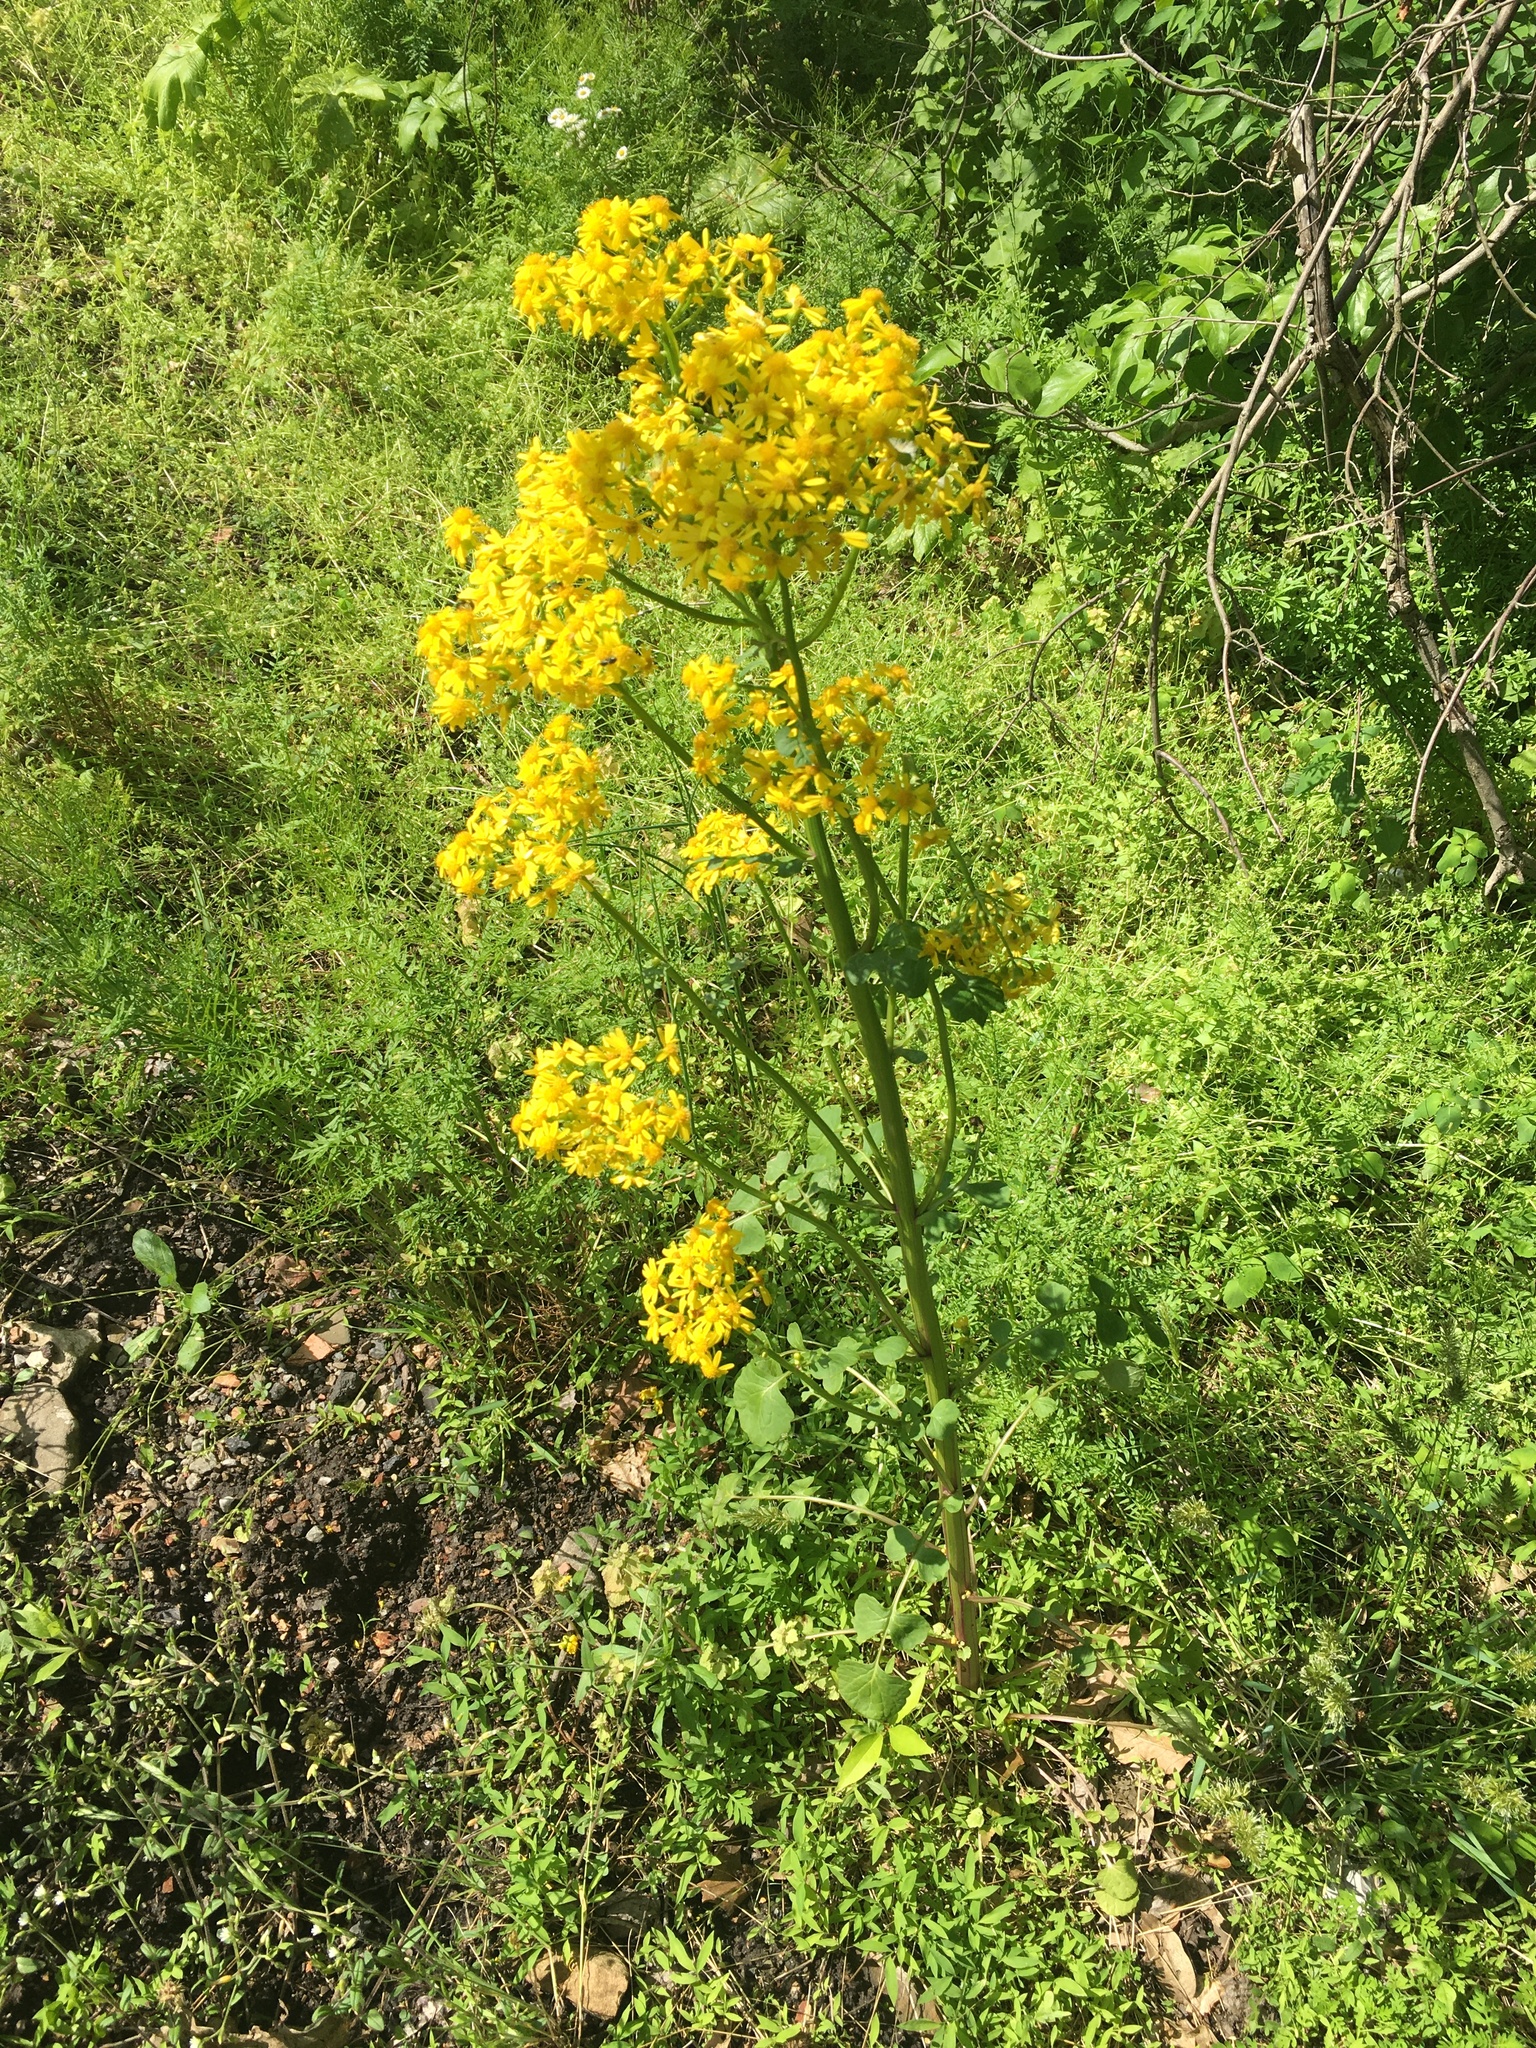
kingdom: Plantae
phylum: Tracheophyta
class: Magnoliopsida
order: Asterales
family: Asteraceae
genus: Packera
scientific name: Packera glabella
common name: Butterweed
